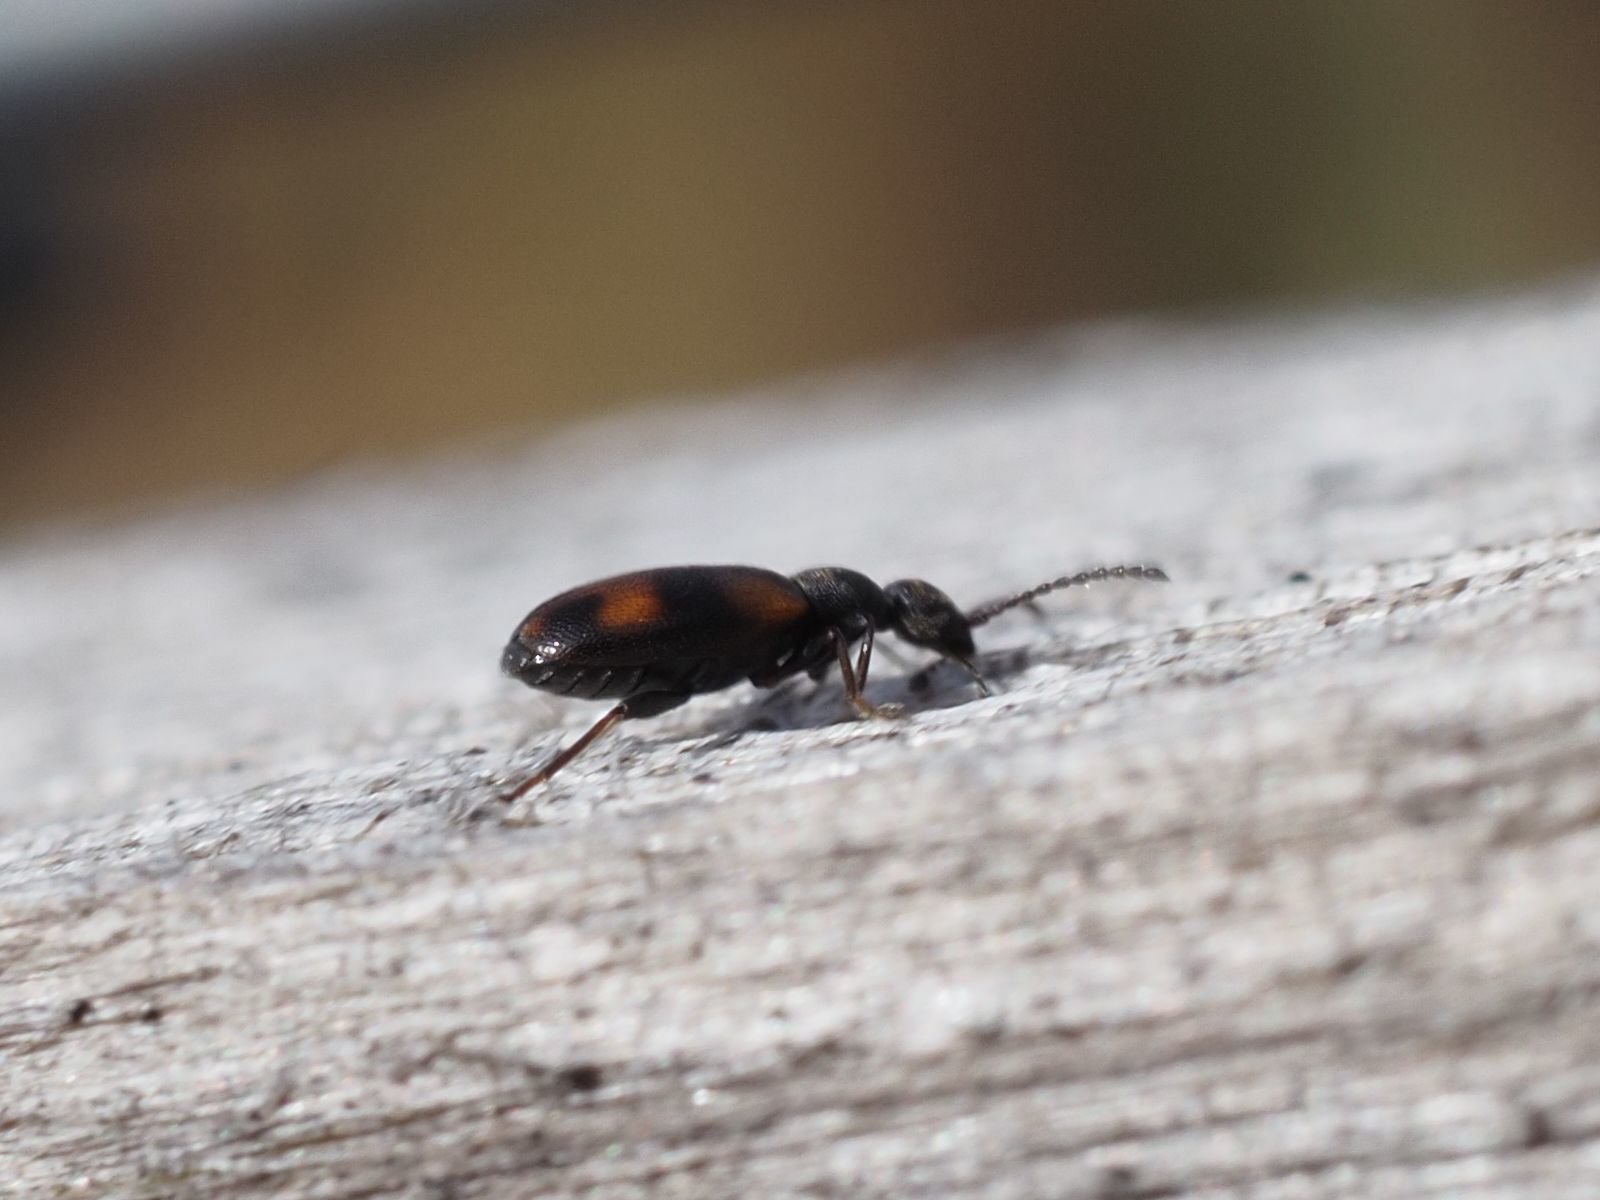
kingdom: Animalia
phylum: Arthropoda
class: Insecta
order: Coleoptera
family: Anthicidae
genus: Anthicus
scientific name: Anthicus antherinus
